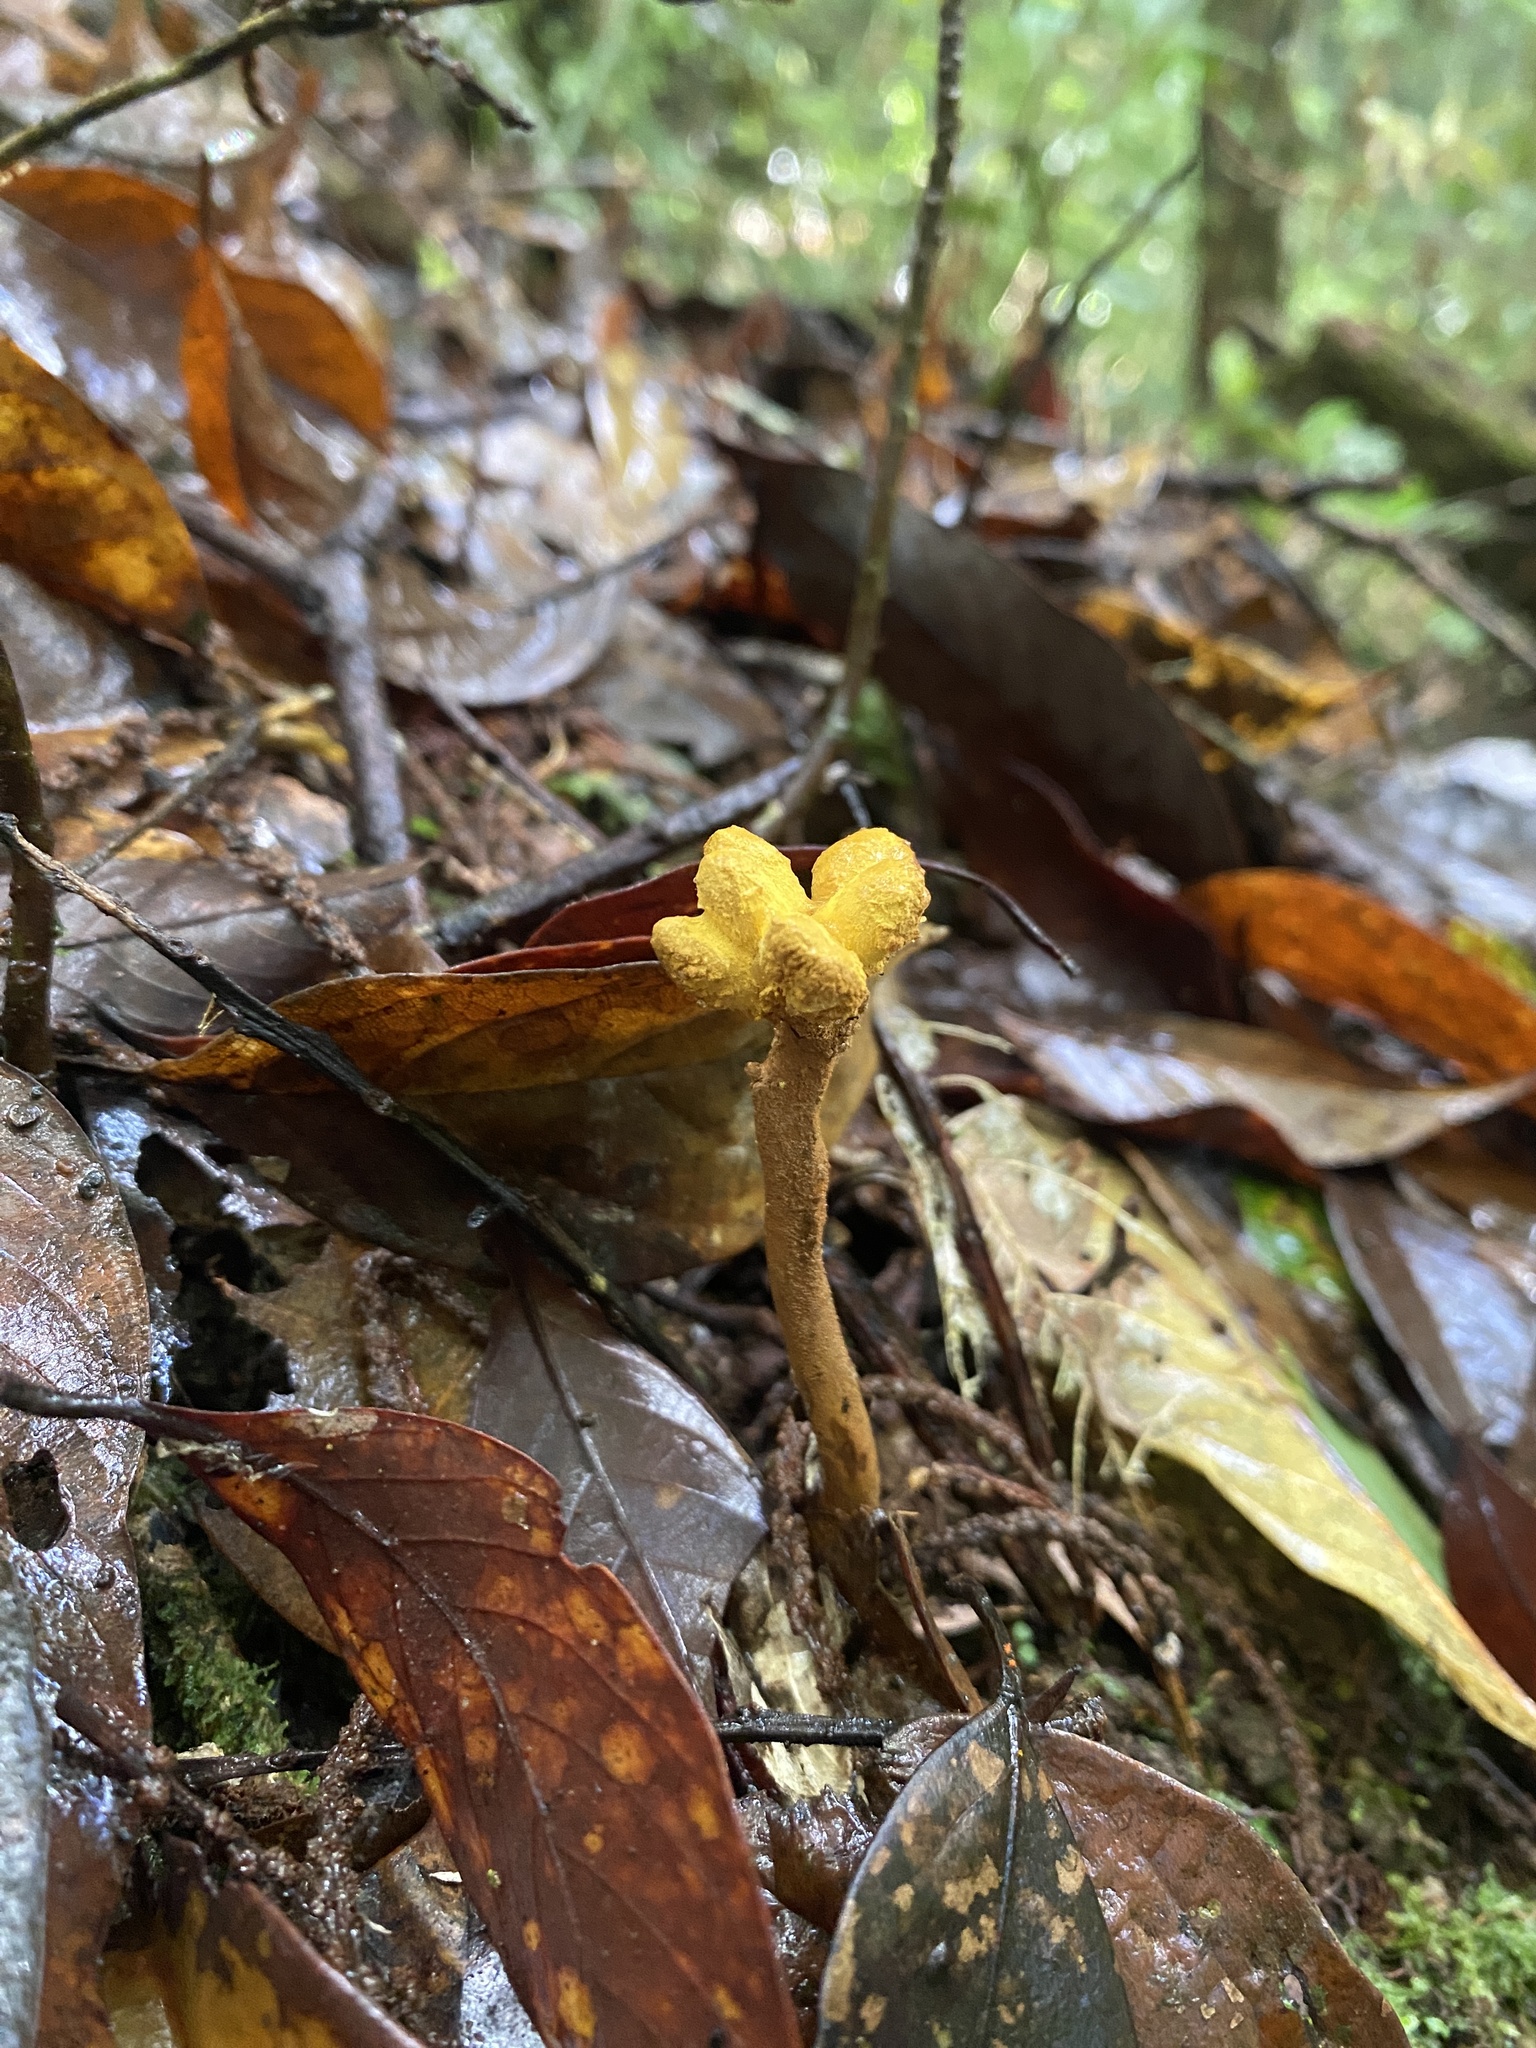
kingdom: Fungi
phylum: Ascomycota
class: Eurotiomycetes
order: Eurotiales
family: Aspergillaceae
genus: Dendrosphaera
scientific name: Dendrosphaera eberhardtii
